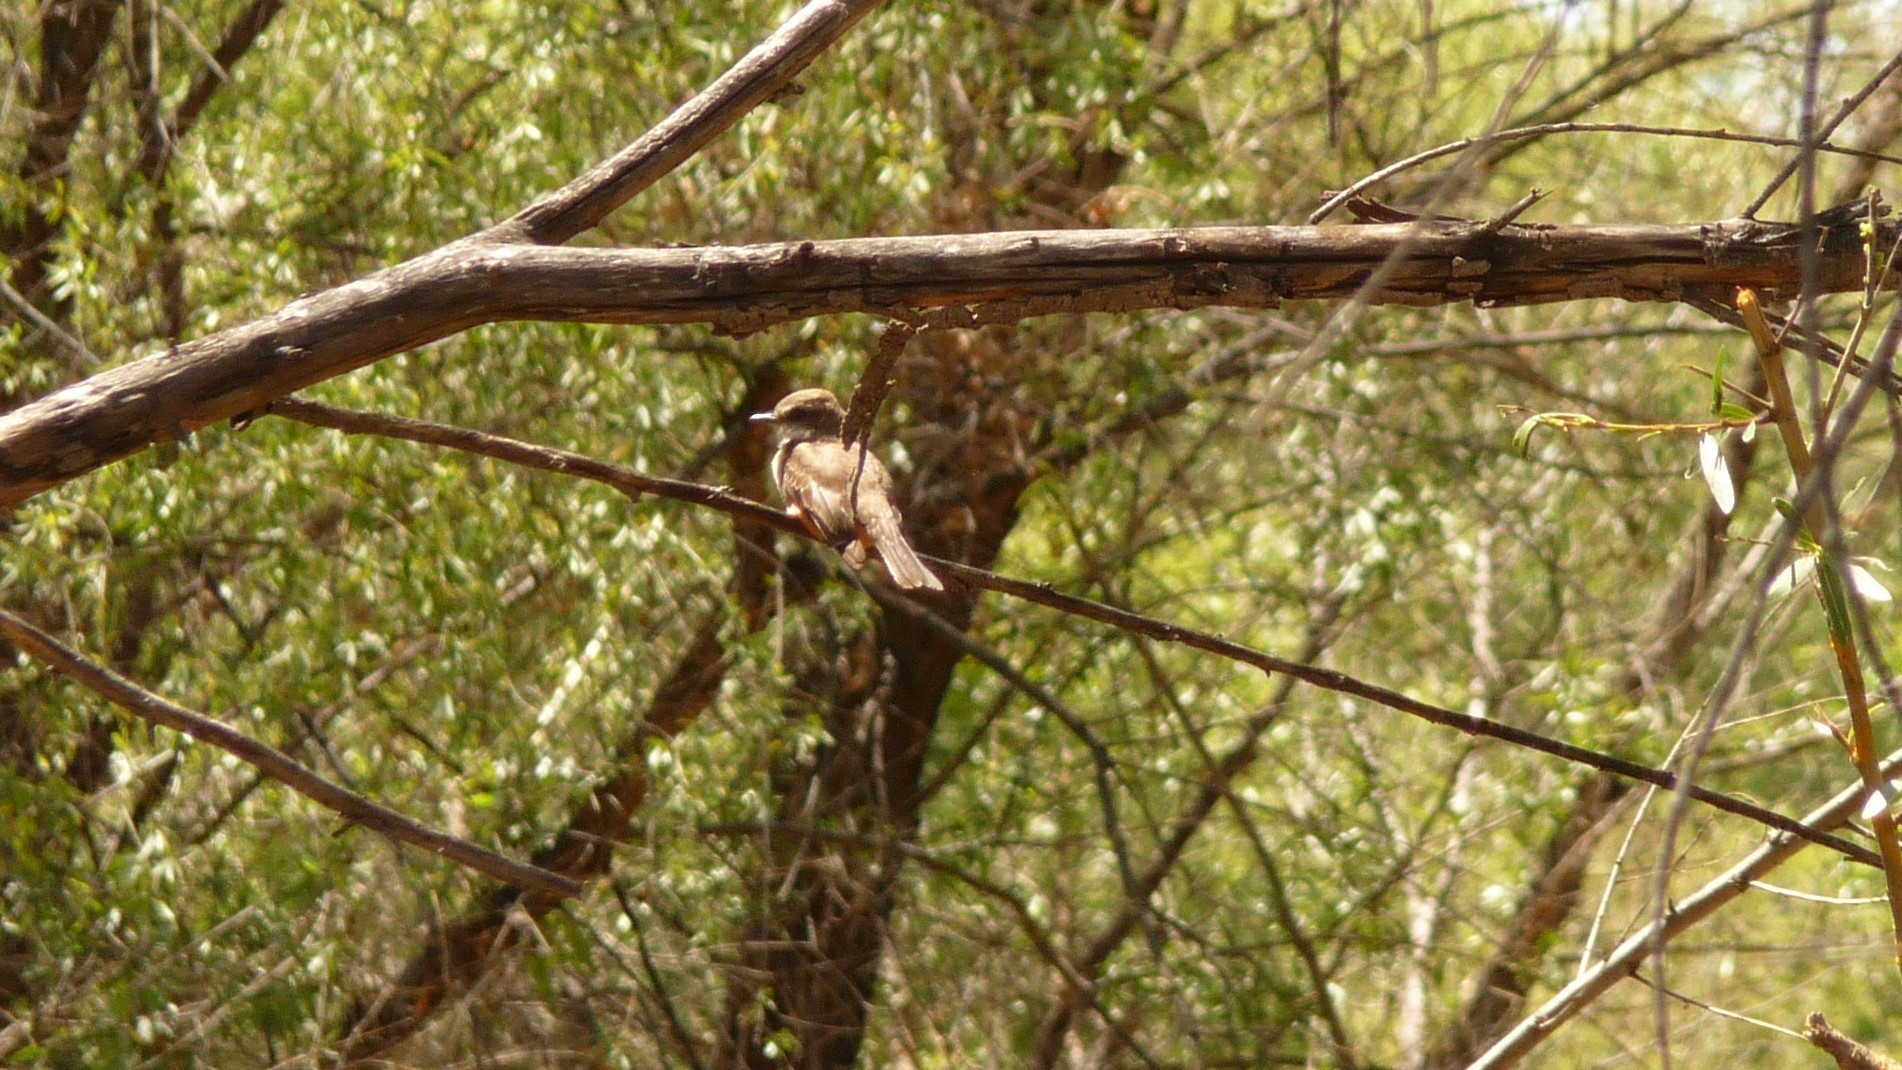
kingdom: Animalia
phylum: Chordata
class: Aves
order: Passeriformes
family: Tyrannidae
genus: Pyrocephalus
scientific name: Pyrocephalus rubinus
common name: Vermilion flycatcher
